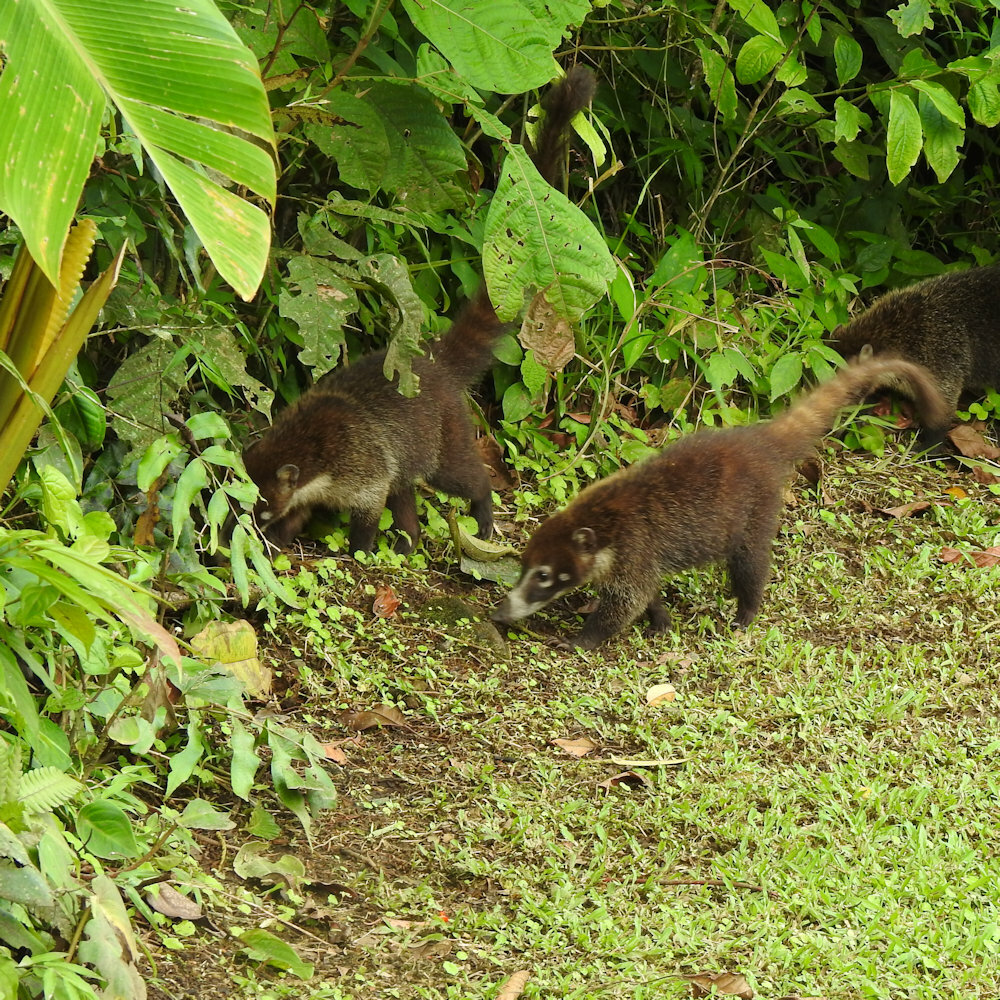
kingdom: Animalia
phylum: Chordata
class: Mammalia
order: Carnivora
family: Procyonidae
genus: Nasua
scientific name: Nasua narica
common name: White-nosed coati
